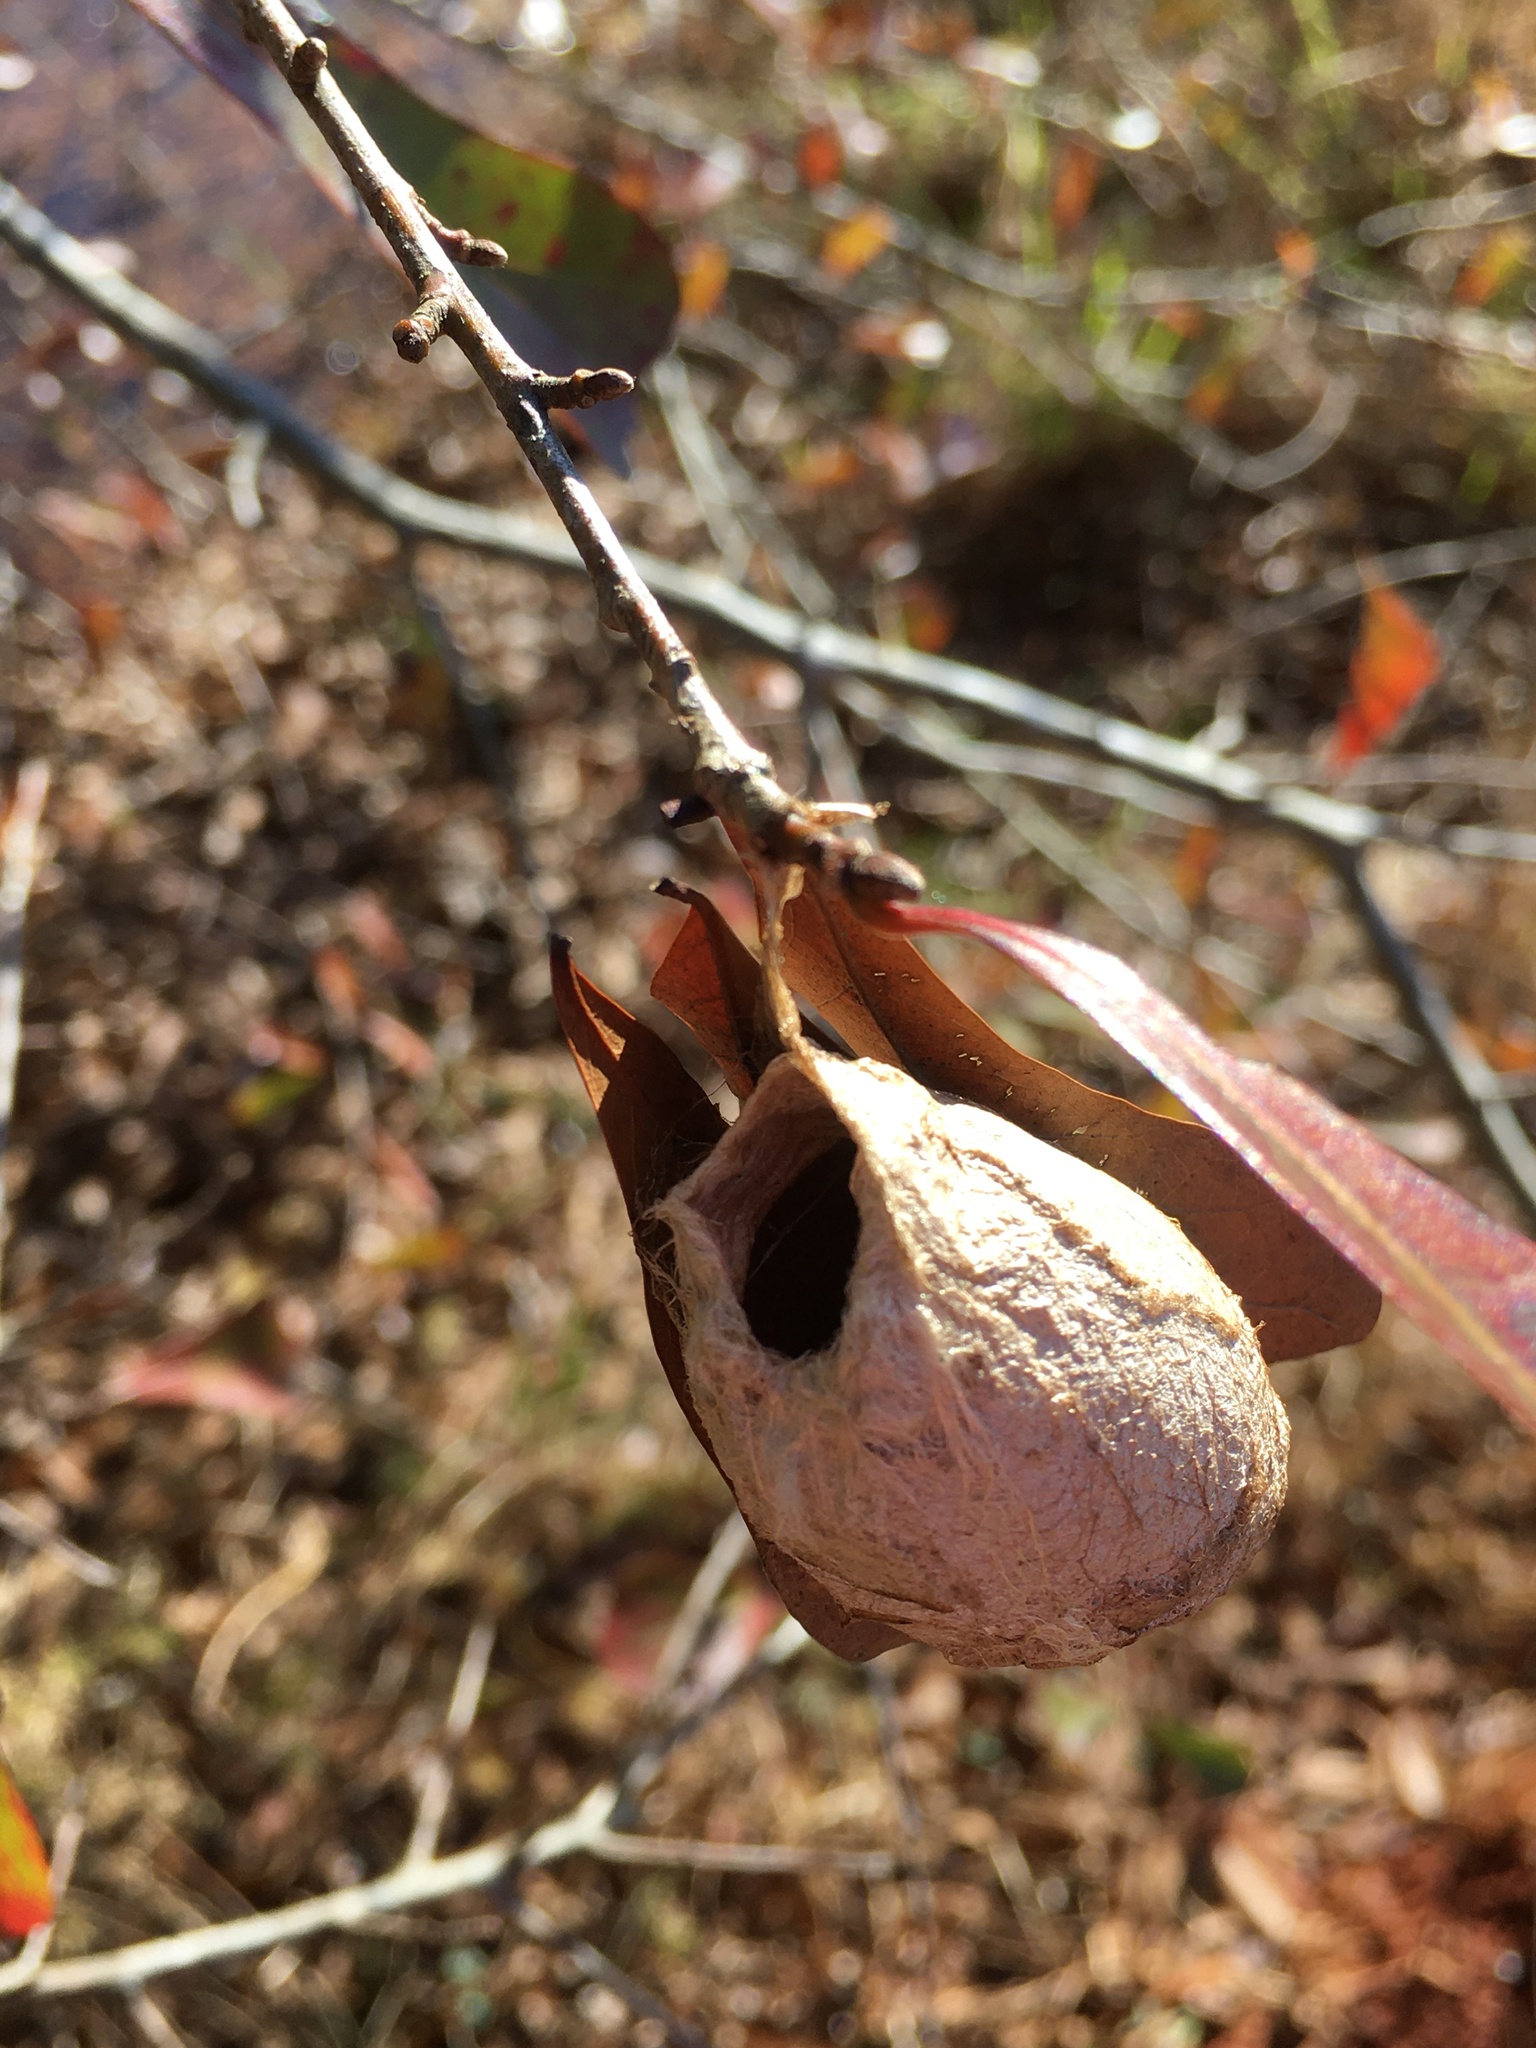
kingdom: Animalia
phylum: Arthropoda
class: Insecta
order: Lepidoptera
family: Saturniidae
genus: Antheraea
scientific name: Antheraea polyphemus
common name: Polyphemus moth
